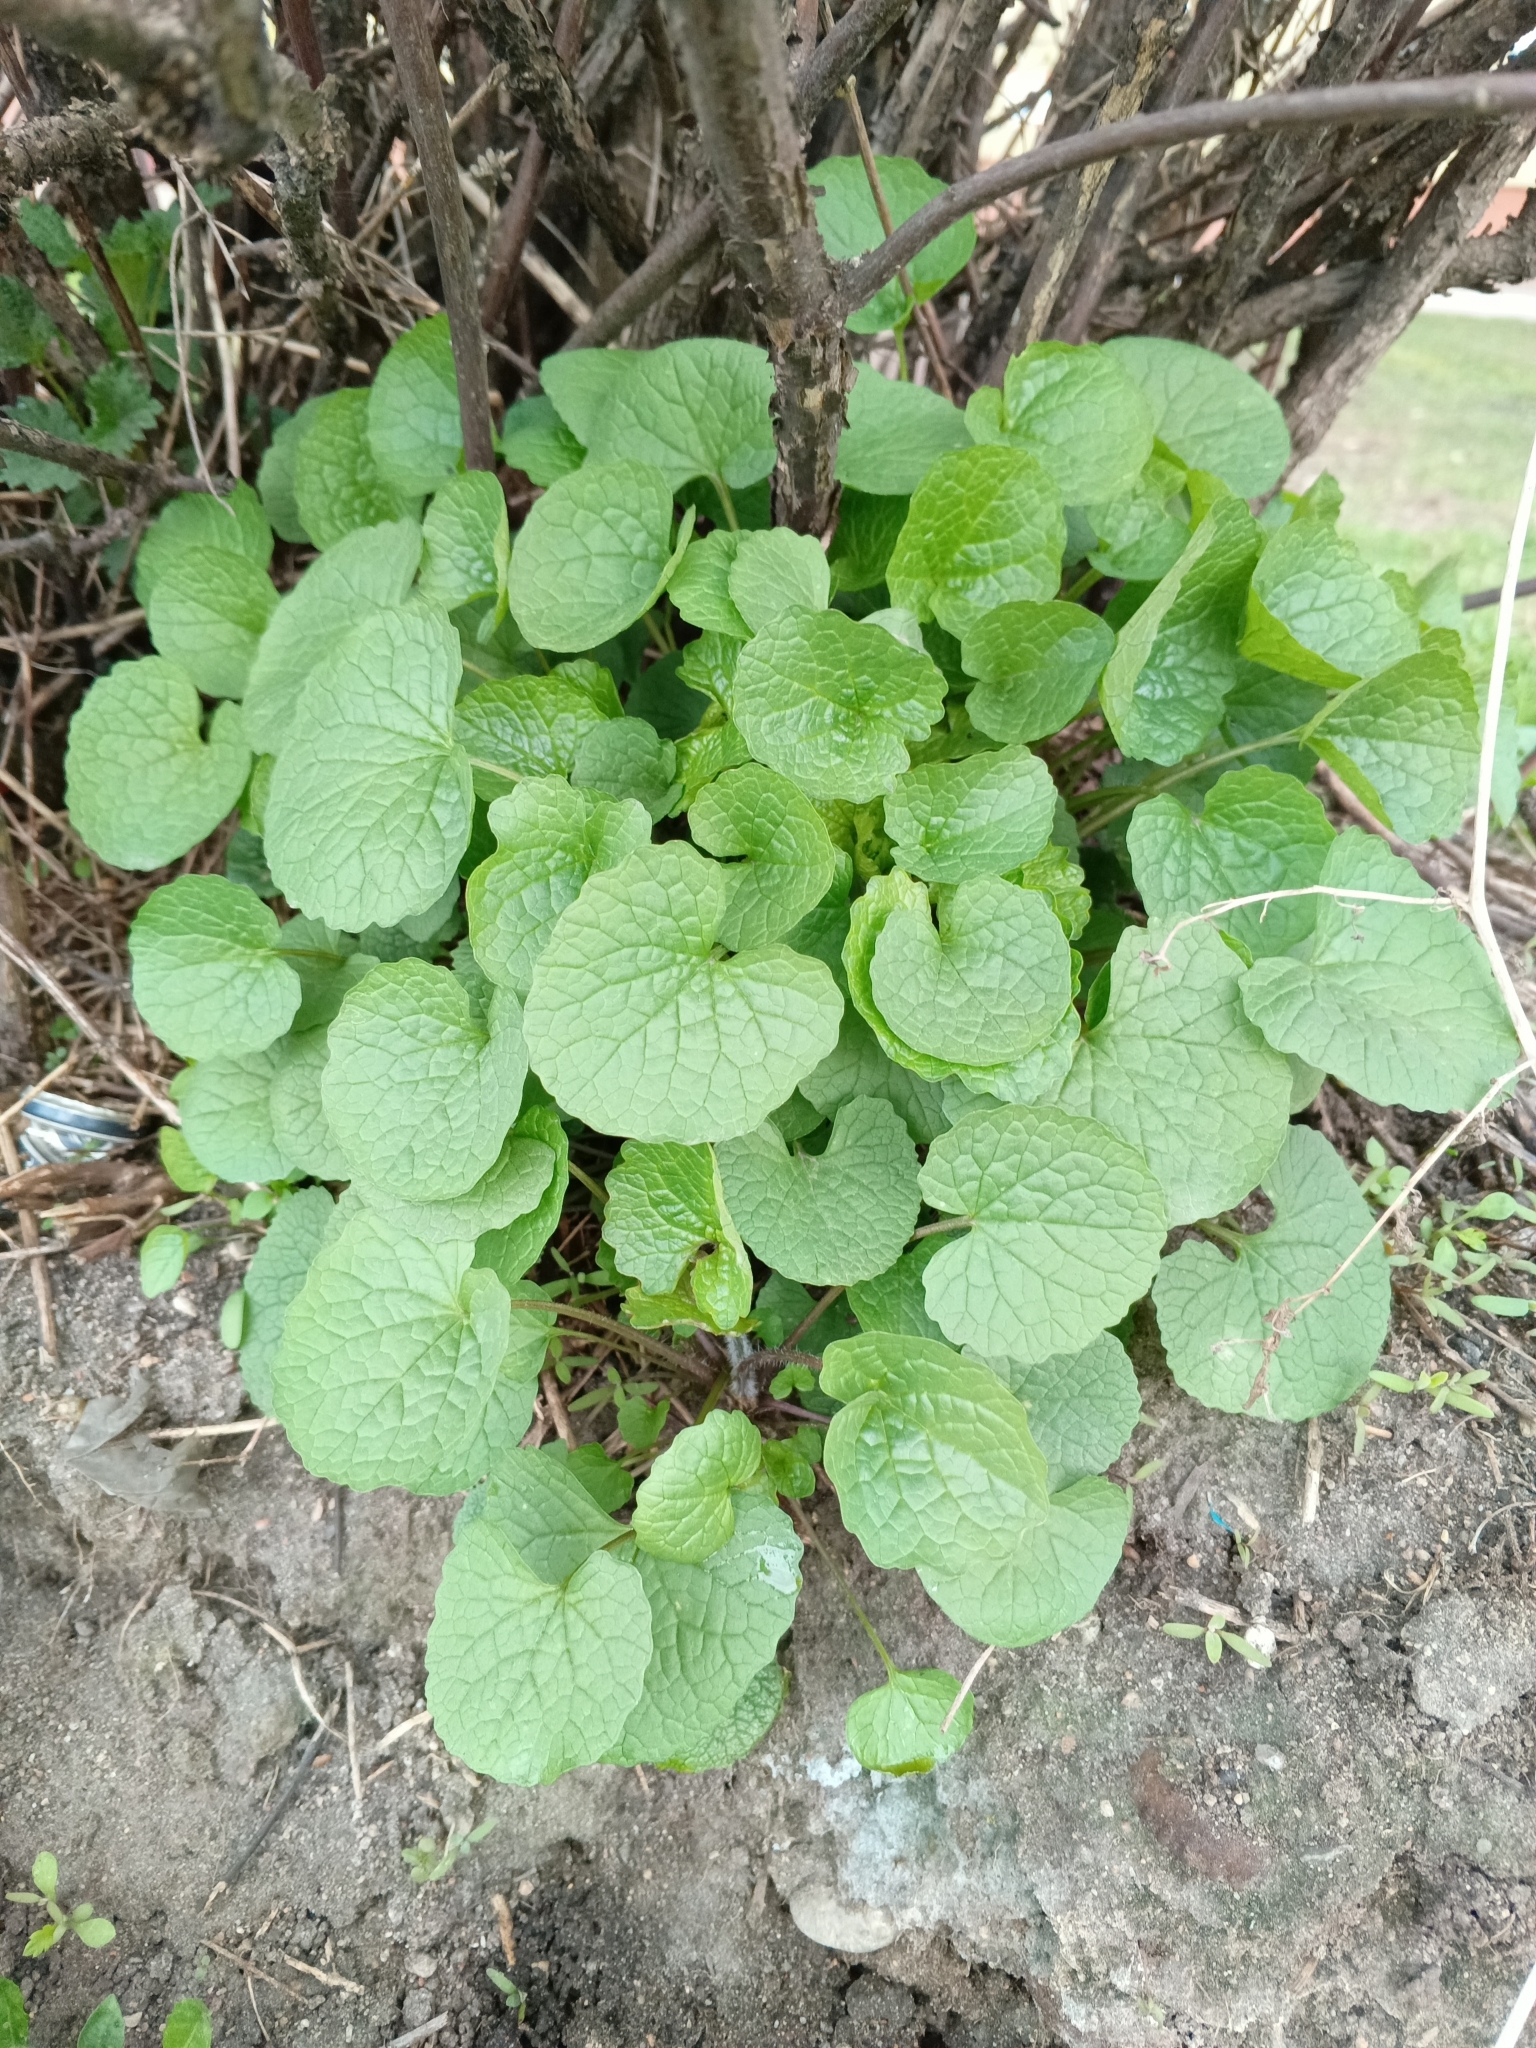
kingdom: Plantae
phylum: Tracheophyta
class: Magnoliopsida
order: Brassicales
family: Brassicaceae
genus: Alliaria
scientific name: Alliaria petiolata
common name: Garlic mustard
